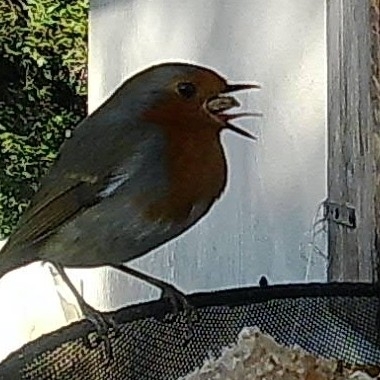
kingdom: Animalia
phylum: Chordata
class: Aves
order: Passeriformes
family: Muscicapidae
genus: Erithacus
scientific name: Erithacus rubecula
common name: European robin
